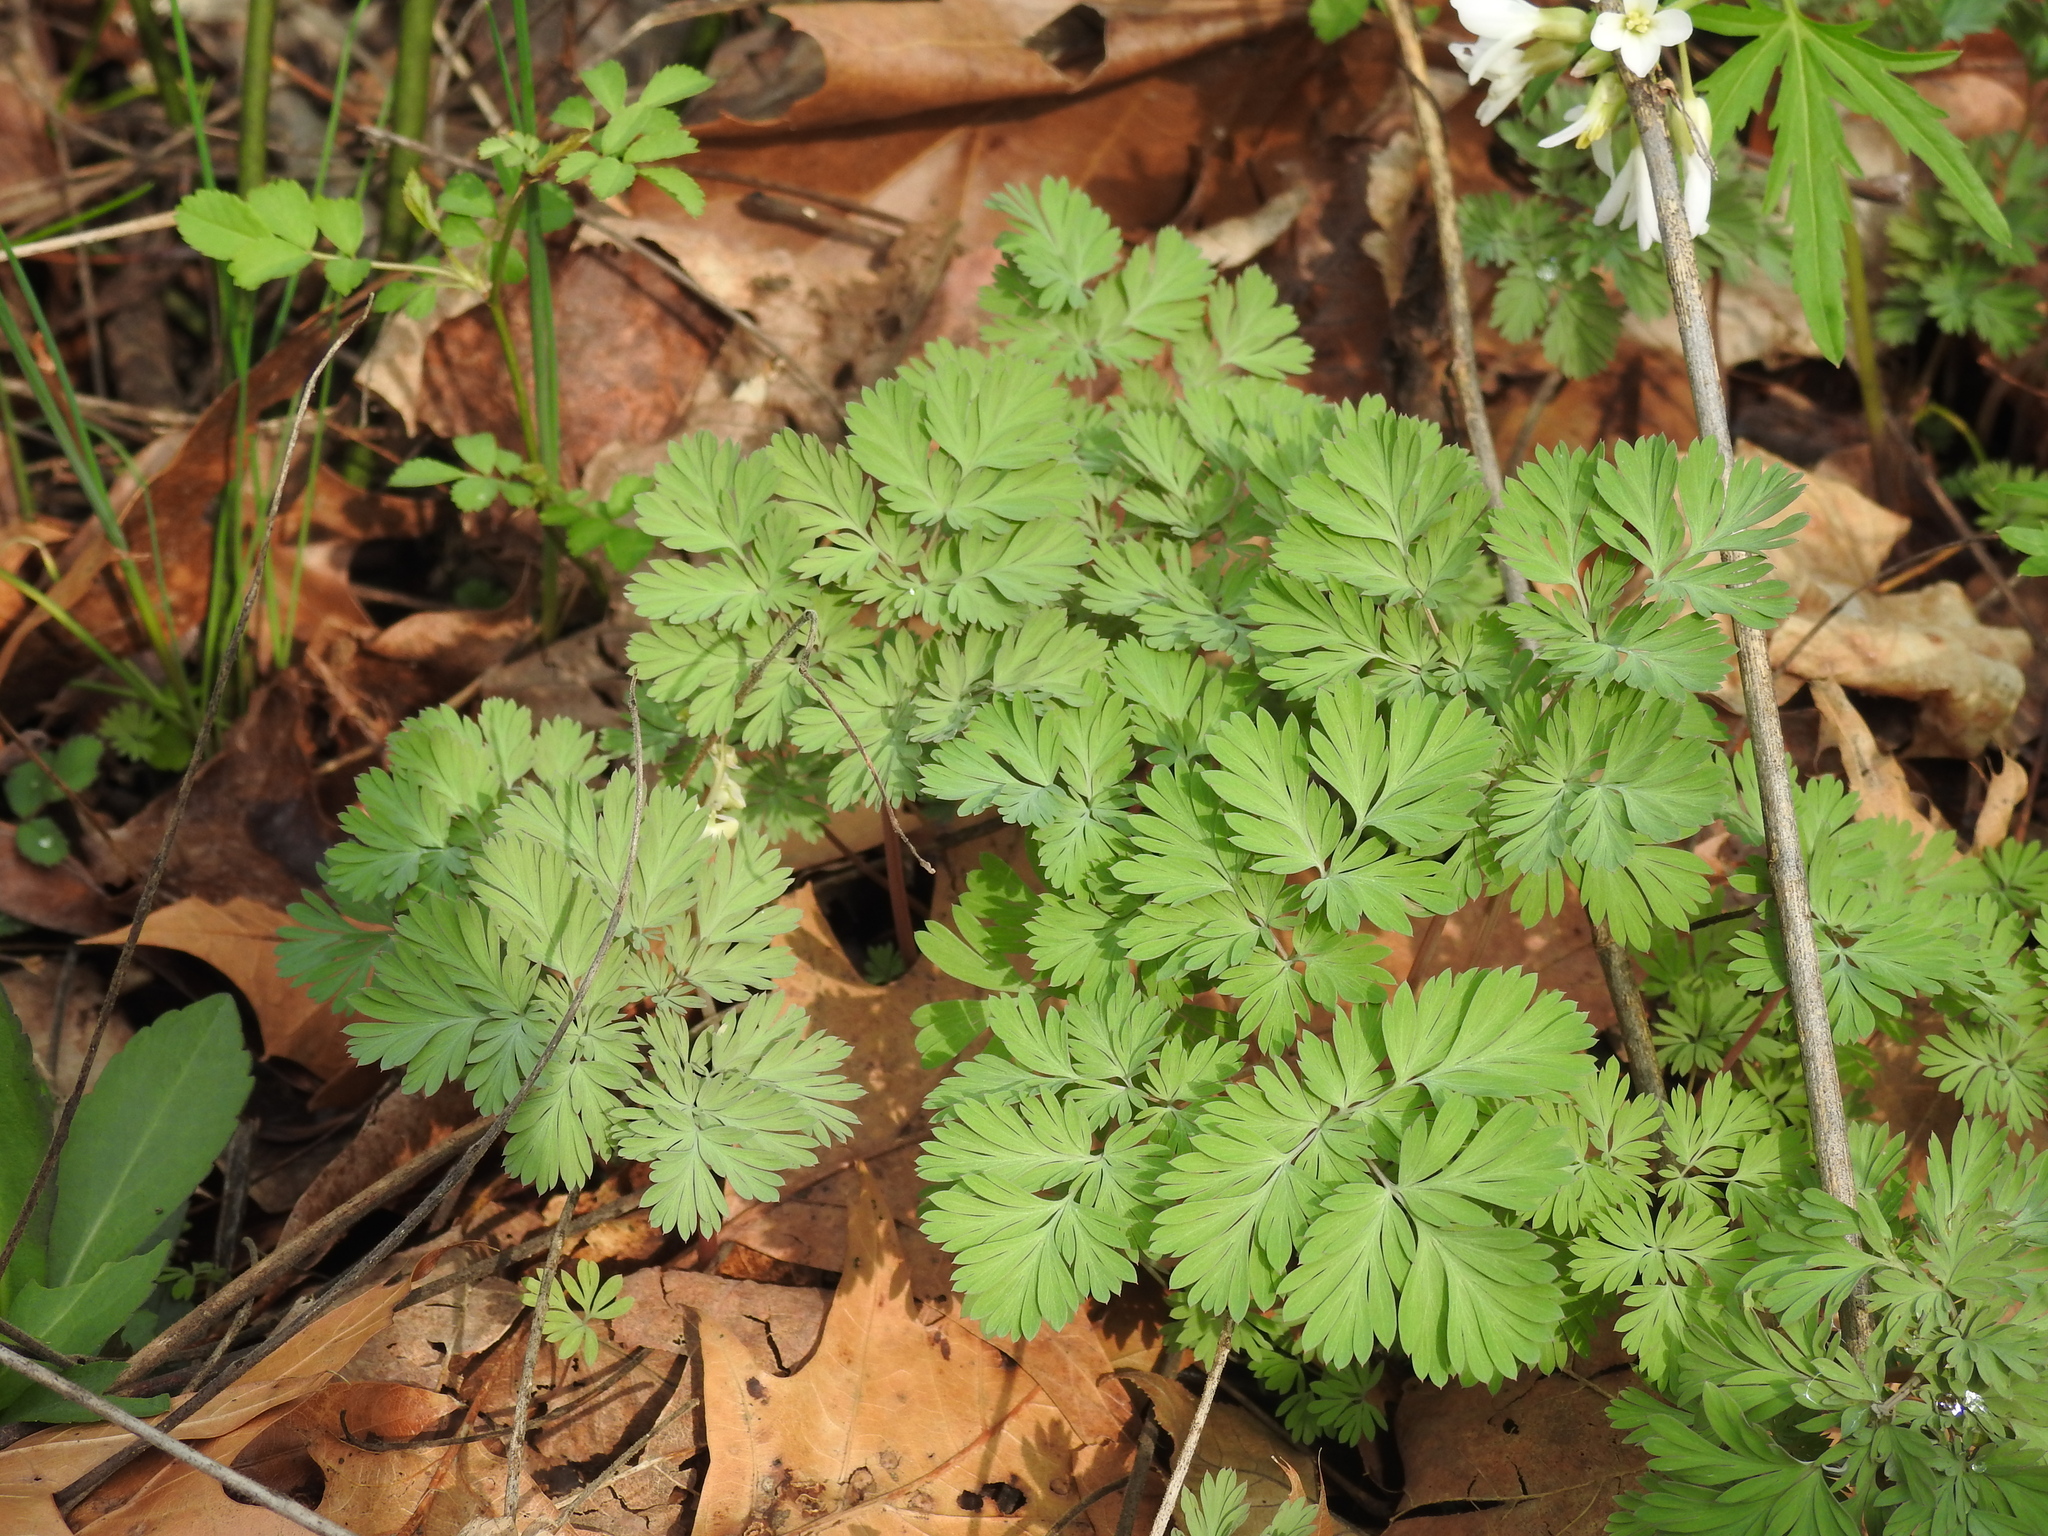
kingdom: Plantae
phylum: Tracheophyta
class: Magnoliopsida
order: Ranunculales
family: Papaveraceae
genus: Dicentra
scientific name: Dicentra cucullaria
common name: Dutchman's breeches
